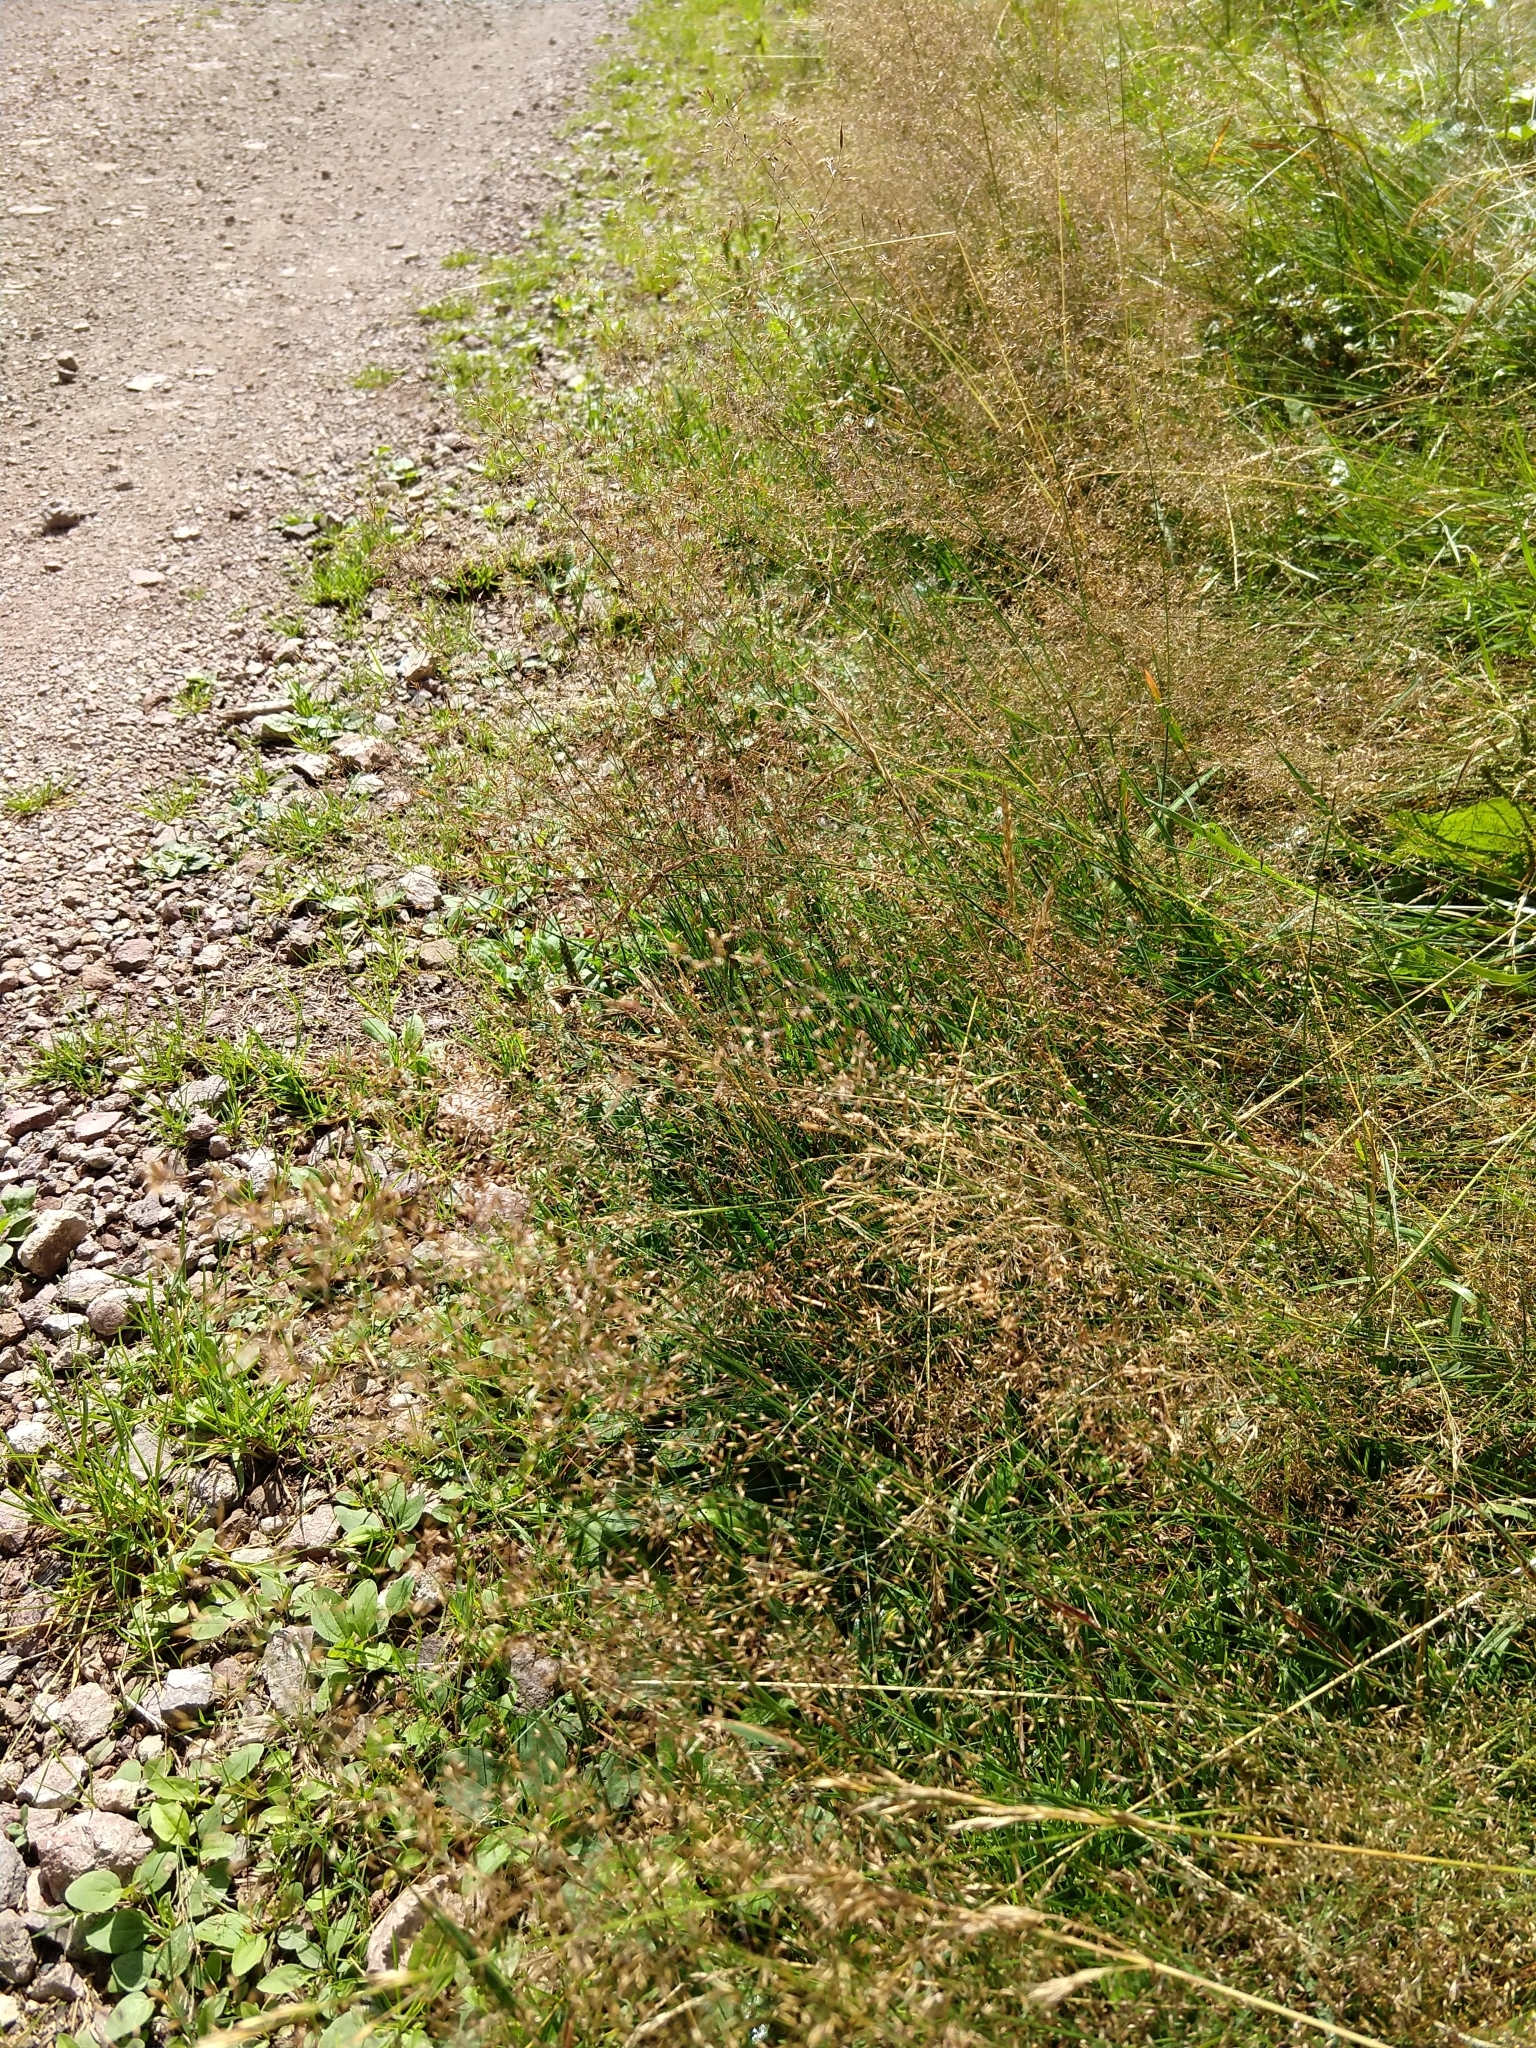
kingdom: Plantae
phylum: Tracheophyta
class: Liliopsida
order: Poales
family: Poaceae
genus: Agrostis
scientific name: Agrostis capillaris
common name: Colonial bentgrass
